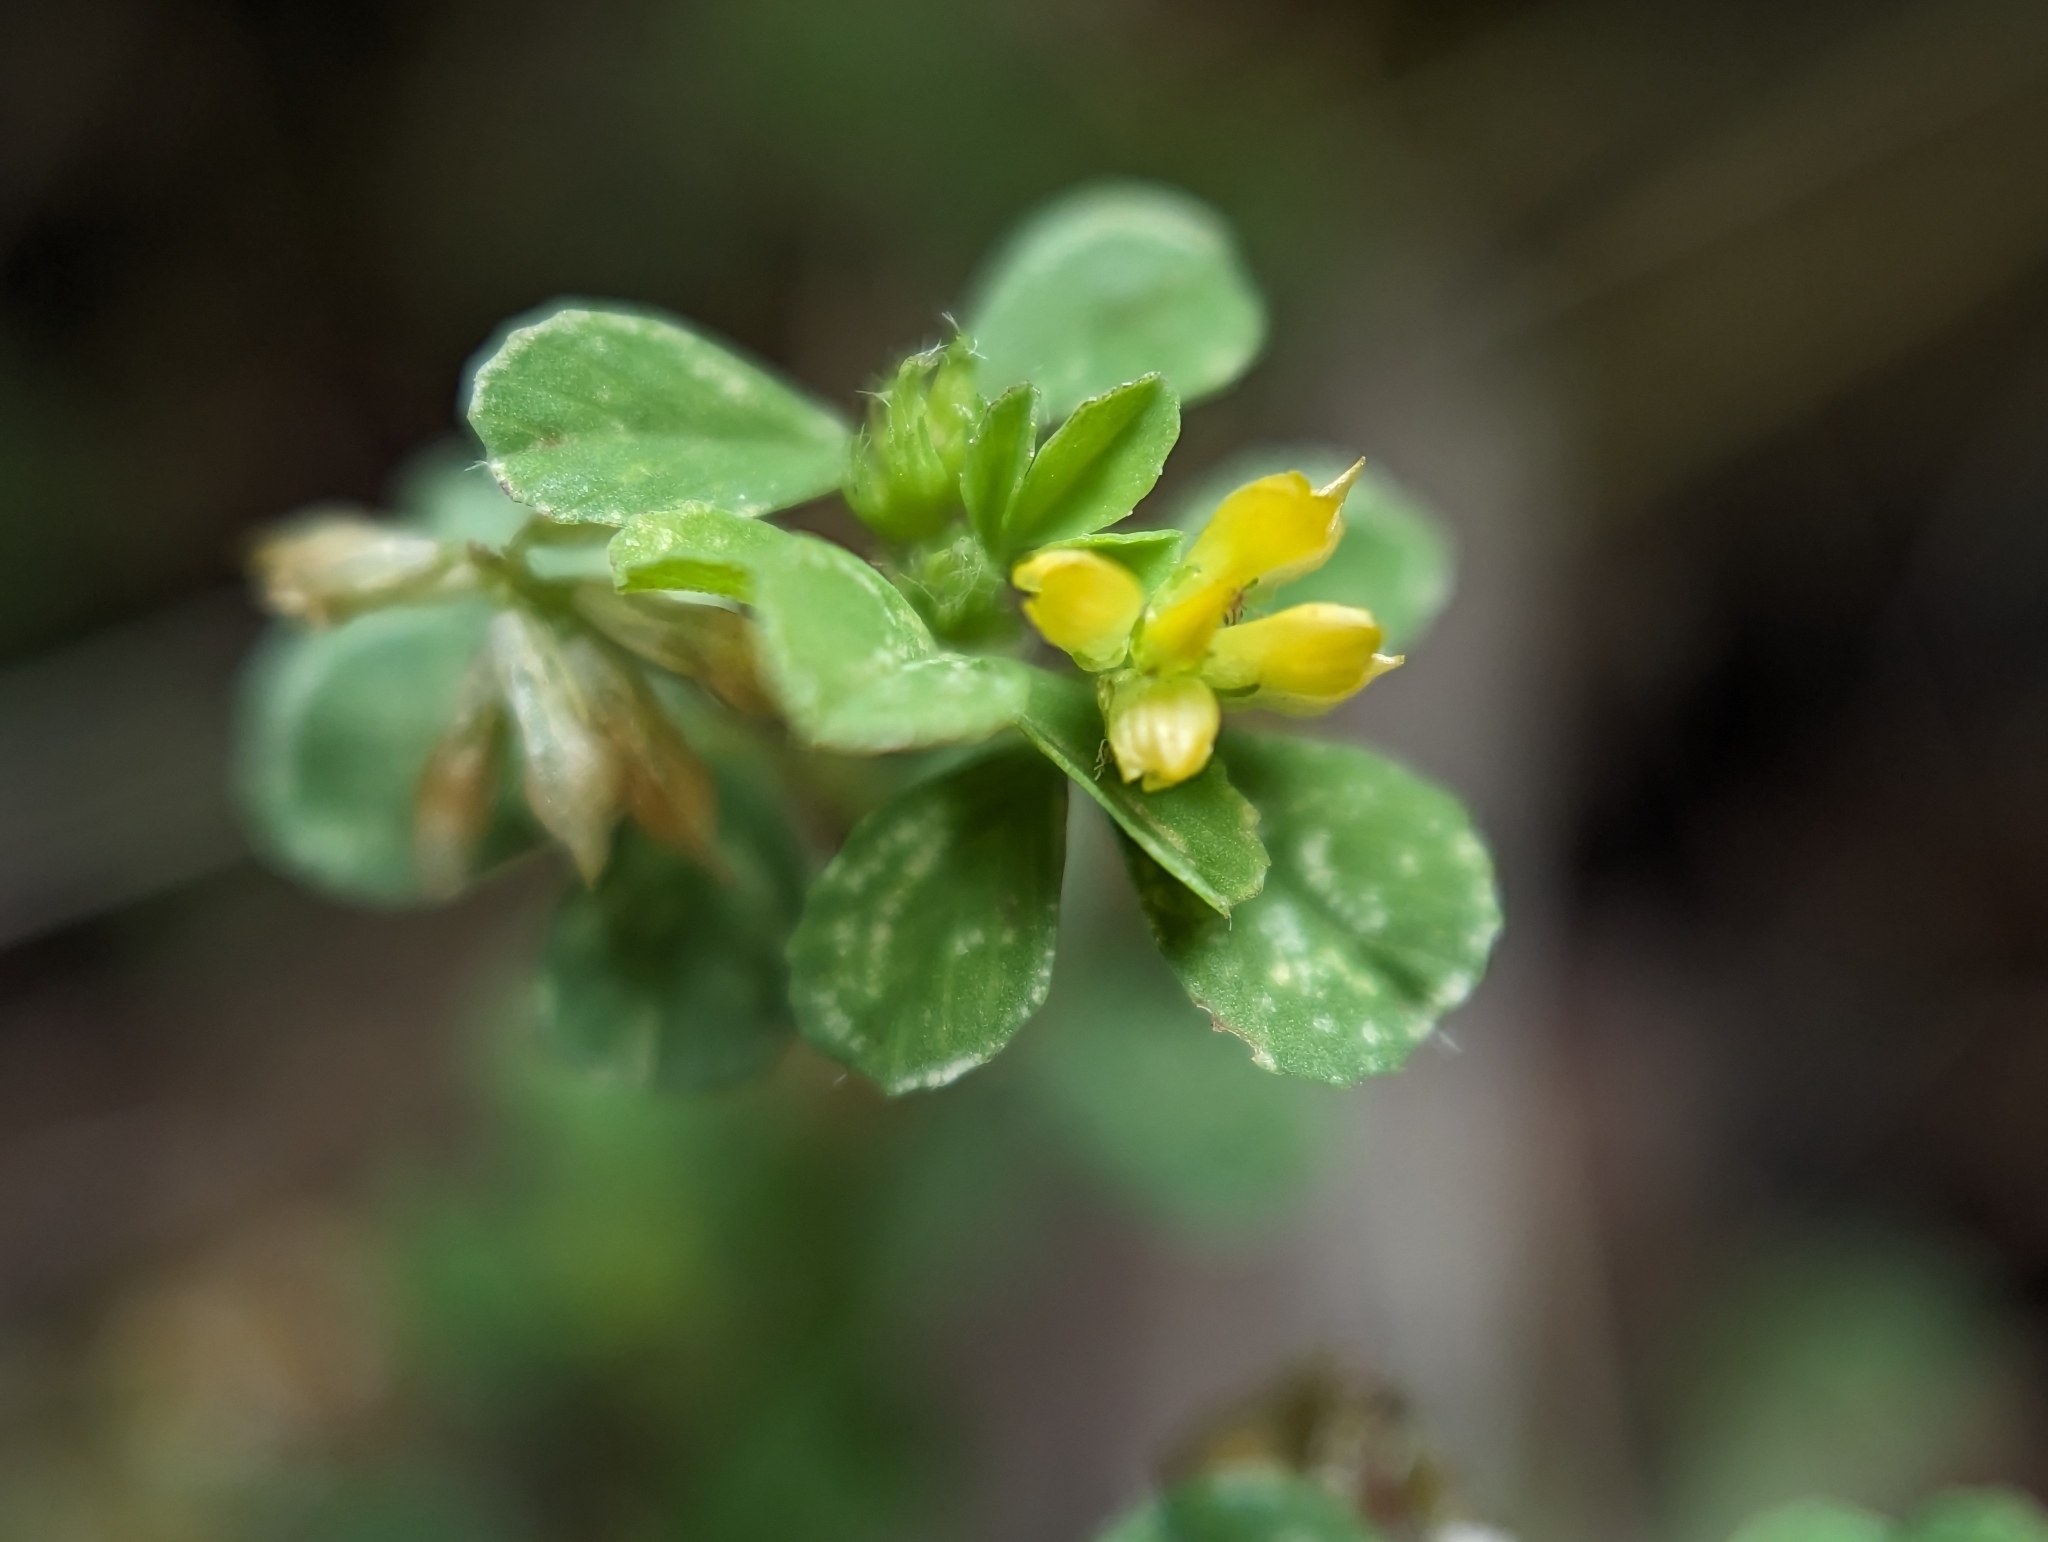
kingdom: Plantae
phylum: Tracheophyta
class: Magnoliopsida
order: Fabales
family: Fabaceae
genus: Trifolium
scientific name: Trifolium dubium
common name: Suckling clover
